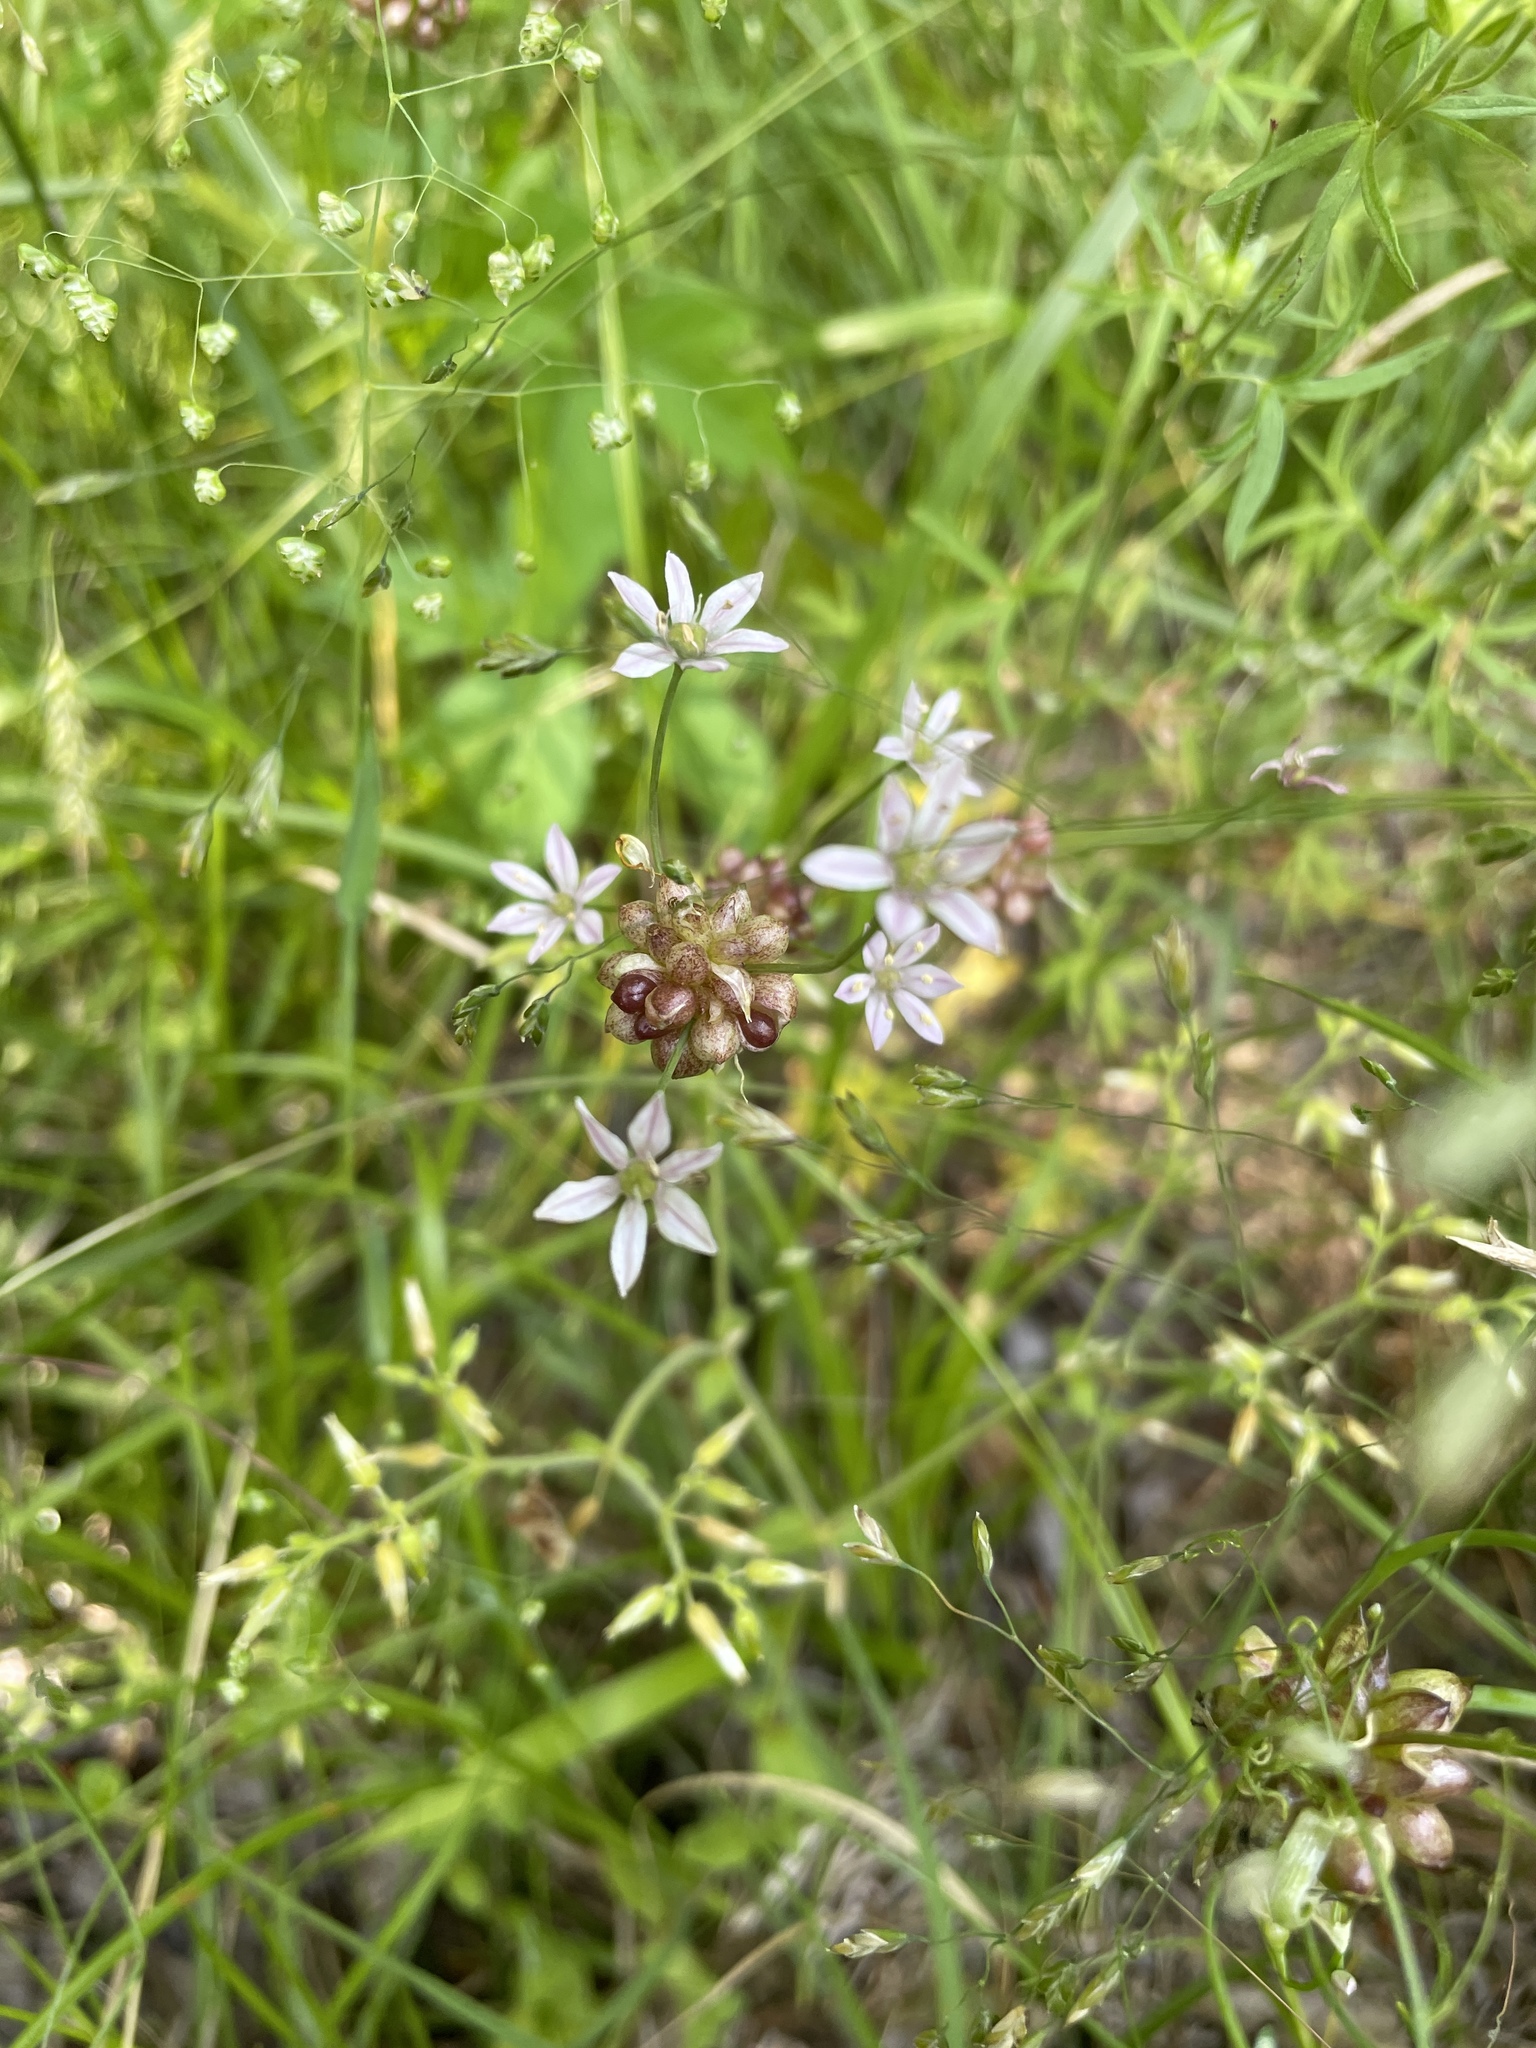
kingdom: Plantae
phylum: Tracheophyta
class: Liliopsida
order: Asparagales
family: Amaryllidaceae
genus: Allium
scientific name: Allium canadense
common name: Meadow garlic
